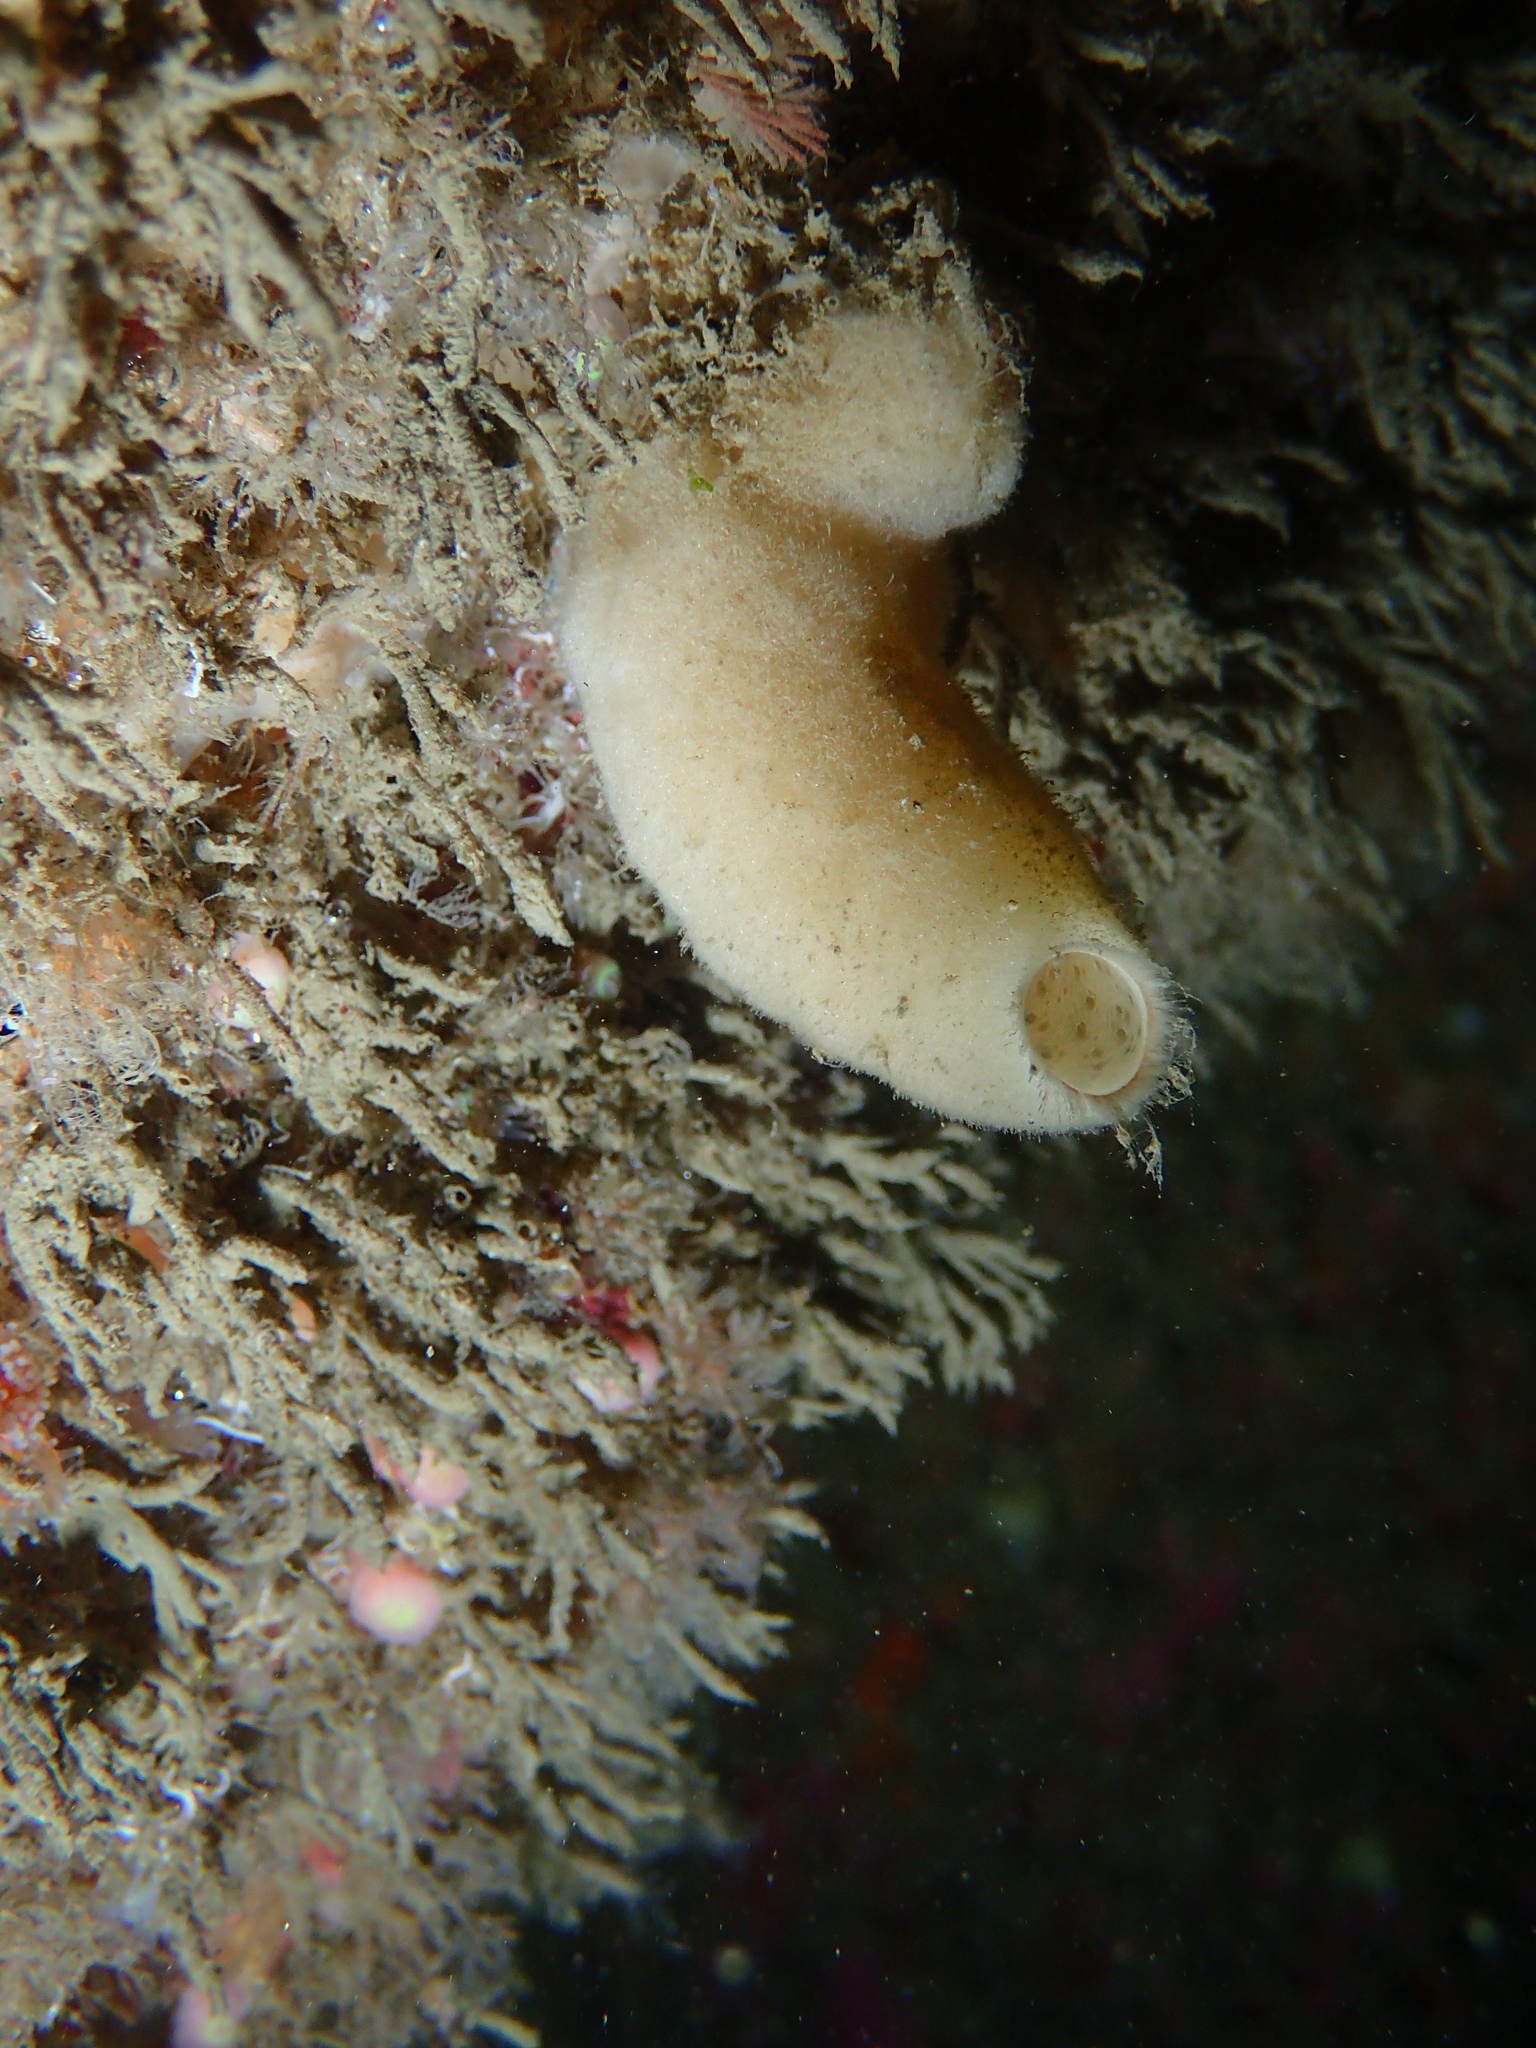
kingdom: Animalia
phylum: Porifera
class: Calcarea
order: Leucosolenida
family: Syconidae
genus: Sycon
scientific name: Sycon ciliatum
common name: Ciliated sponge
